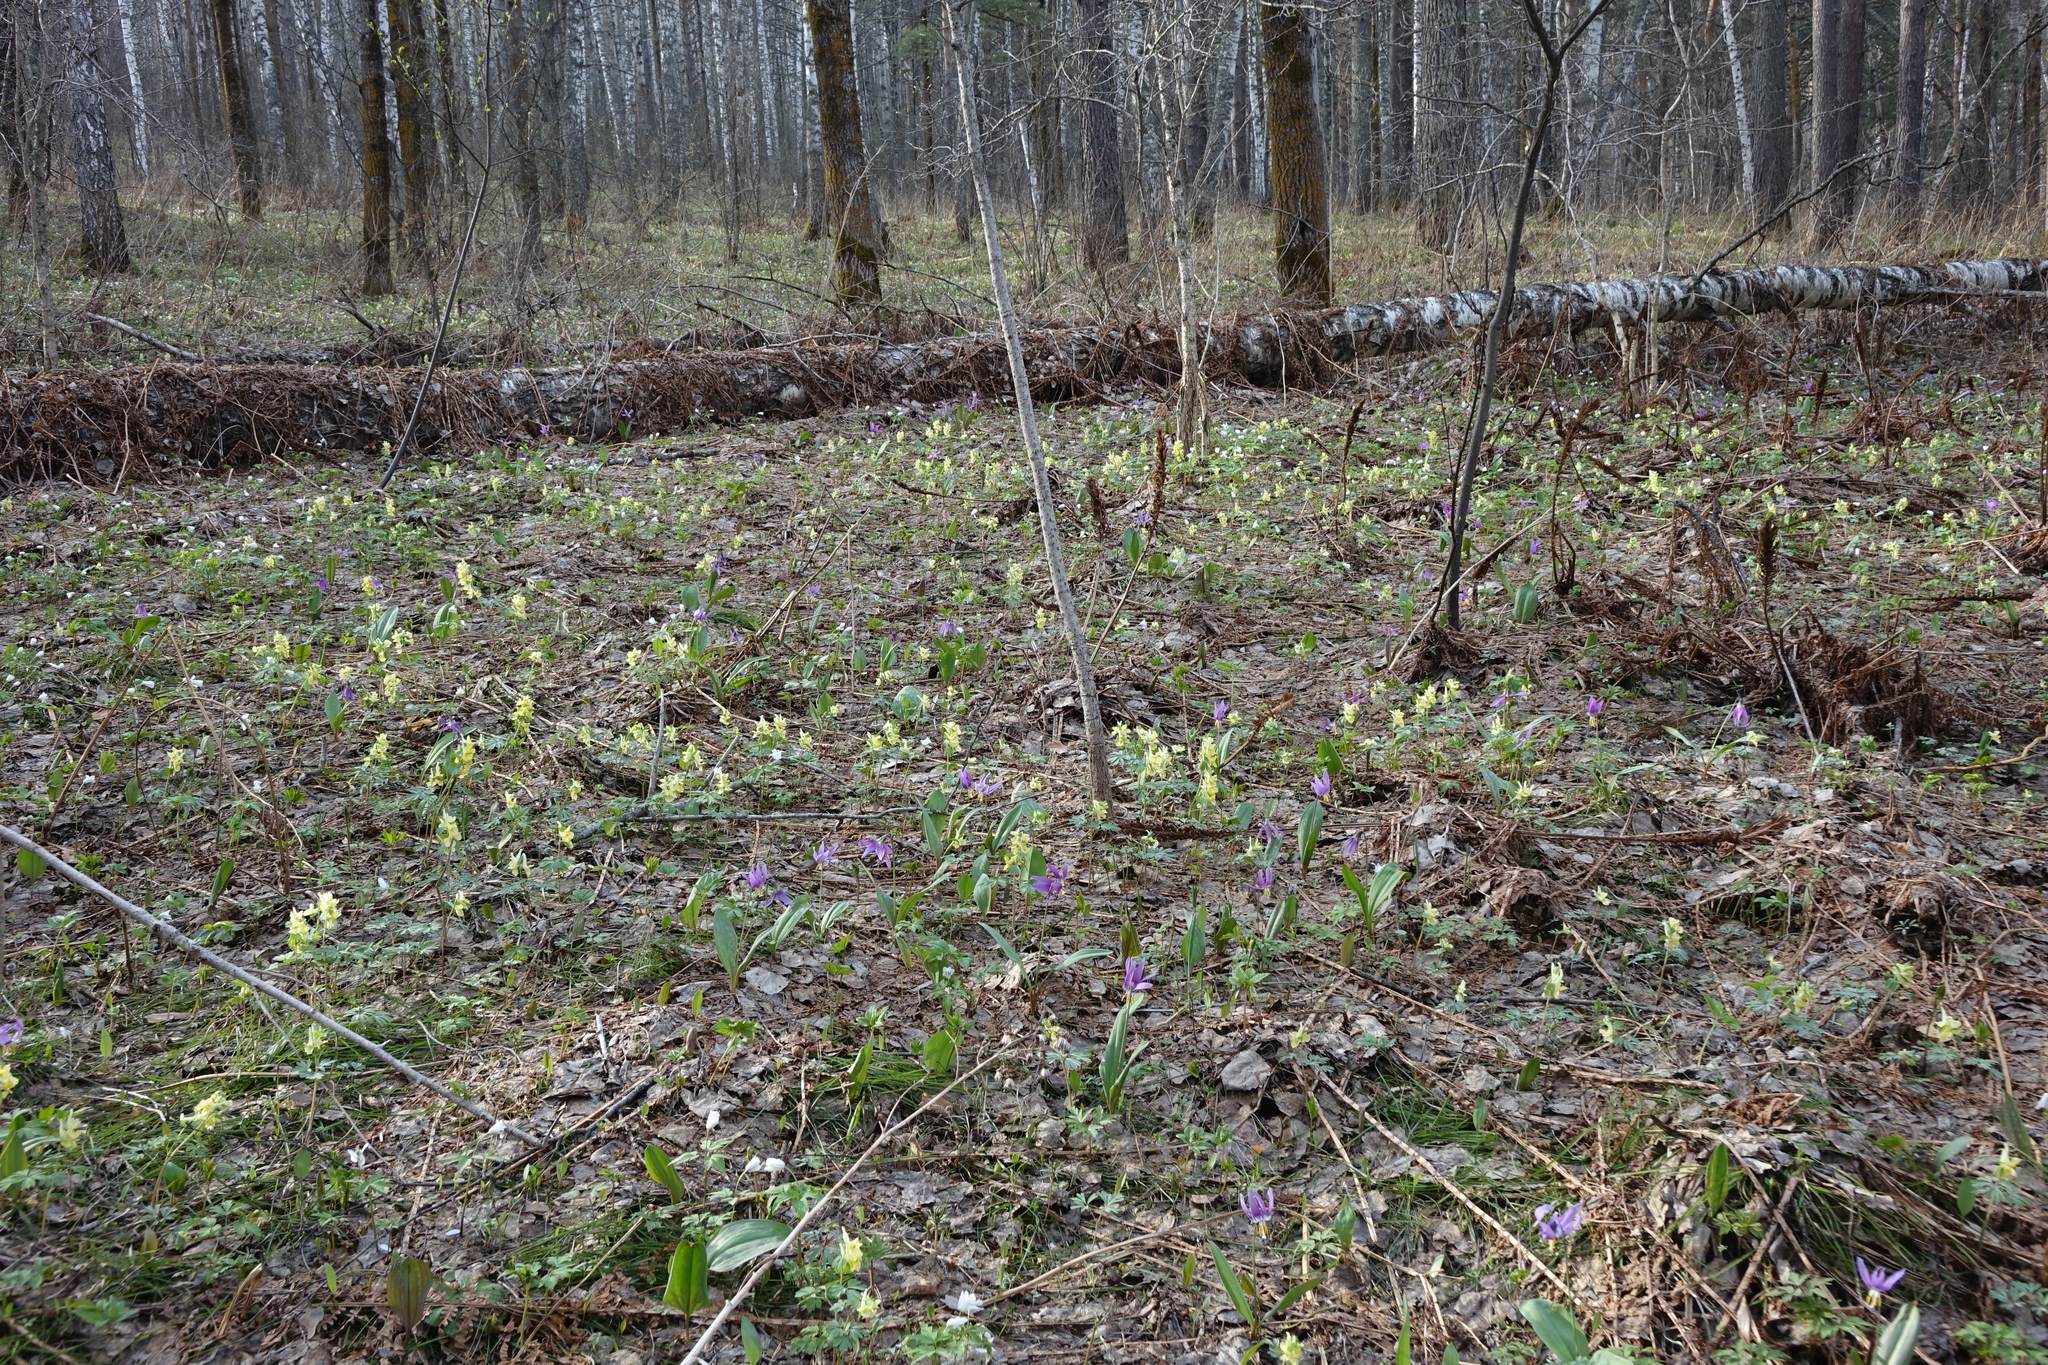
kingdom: Plantae
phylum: Tracheophyta
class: Magnoliopsida
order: Ranunculales
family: Papaveraceae
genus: Corydalis
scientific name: Corydalis bracteata
